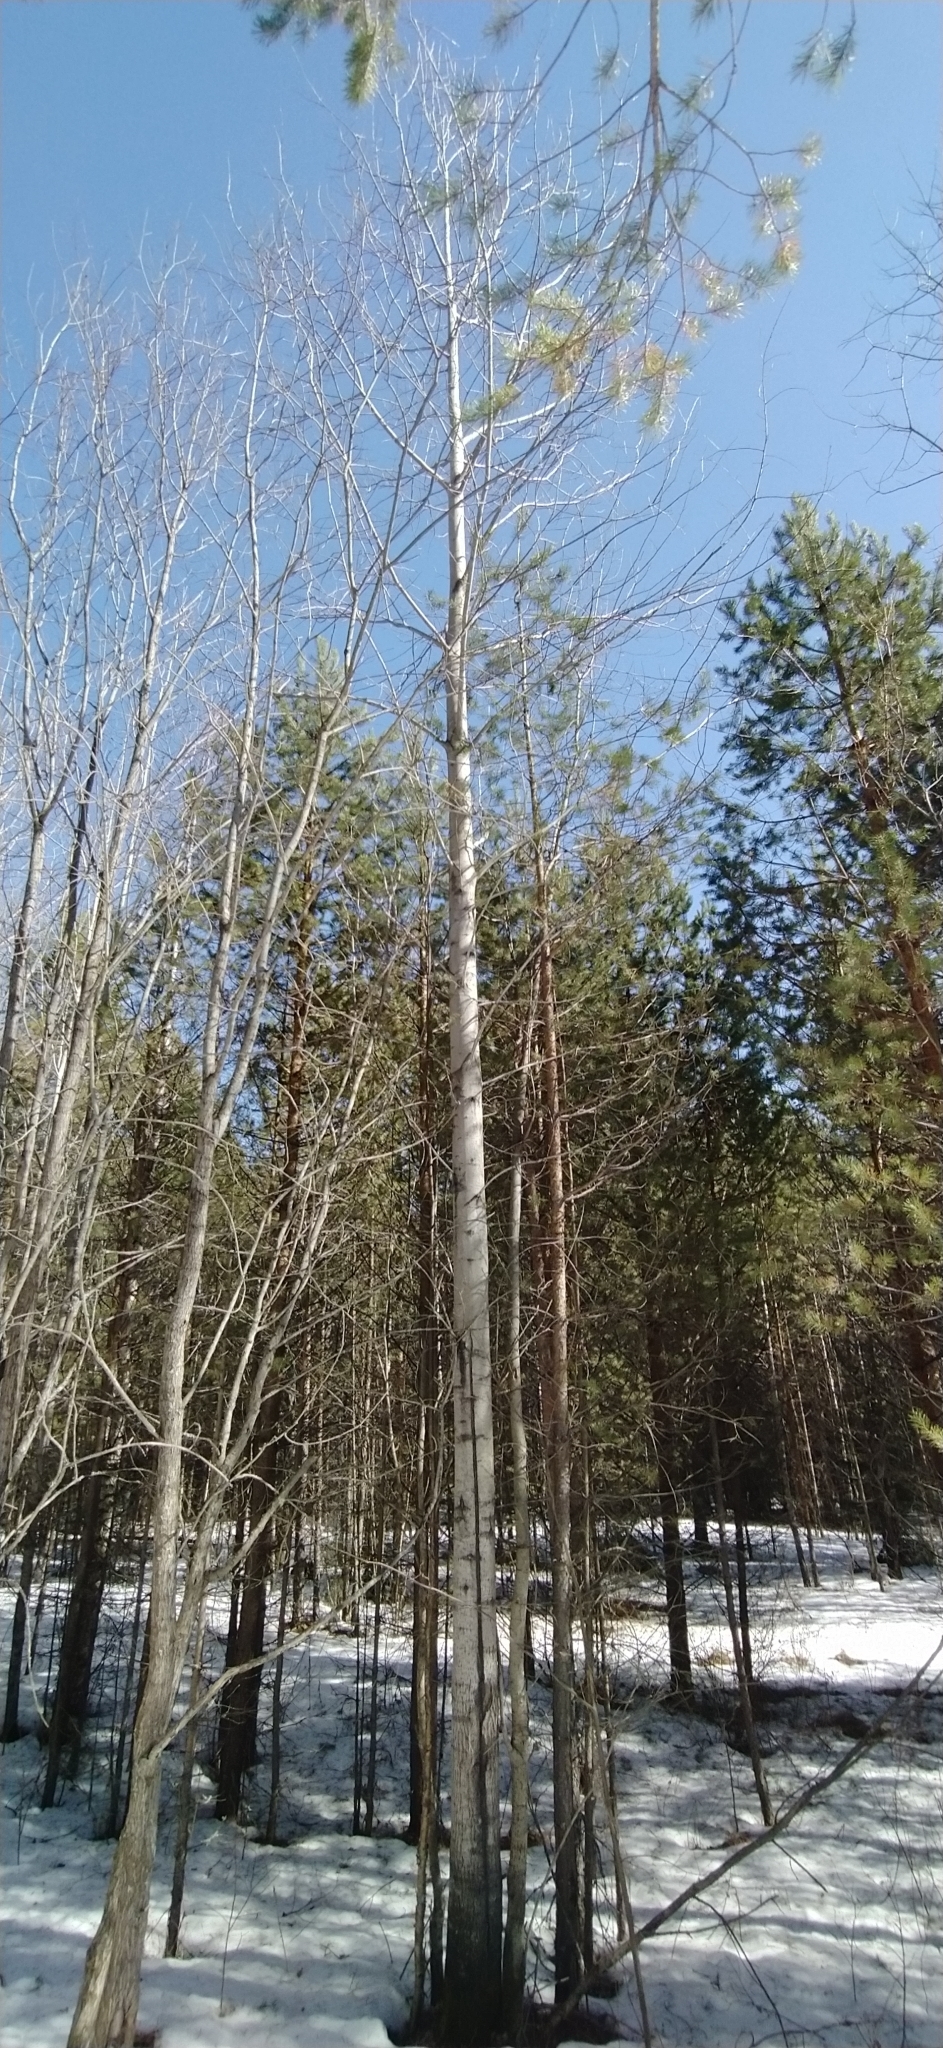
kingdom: Plantae
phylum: Tracheophyta
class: Magnoliopsida
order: Malpighiales
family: Salicaceae
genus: Populus
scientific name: Populus tremula
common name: European aspen
